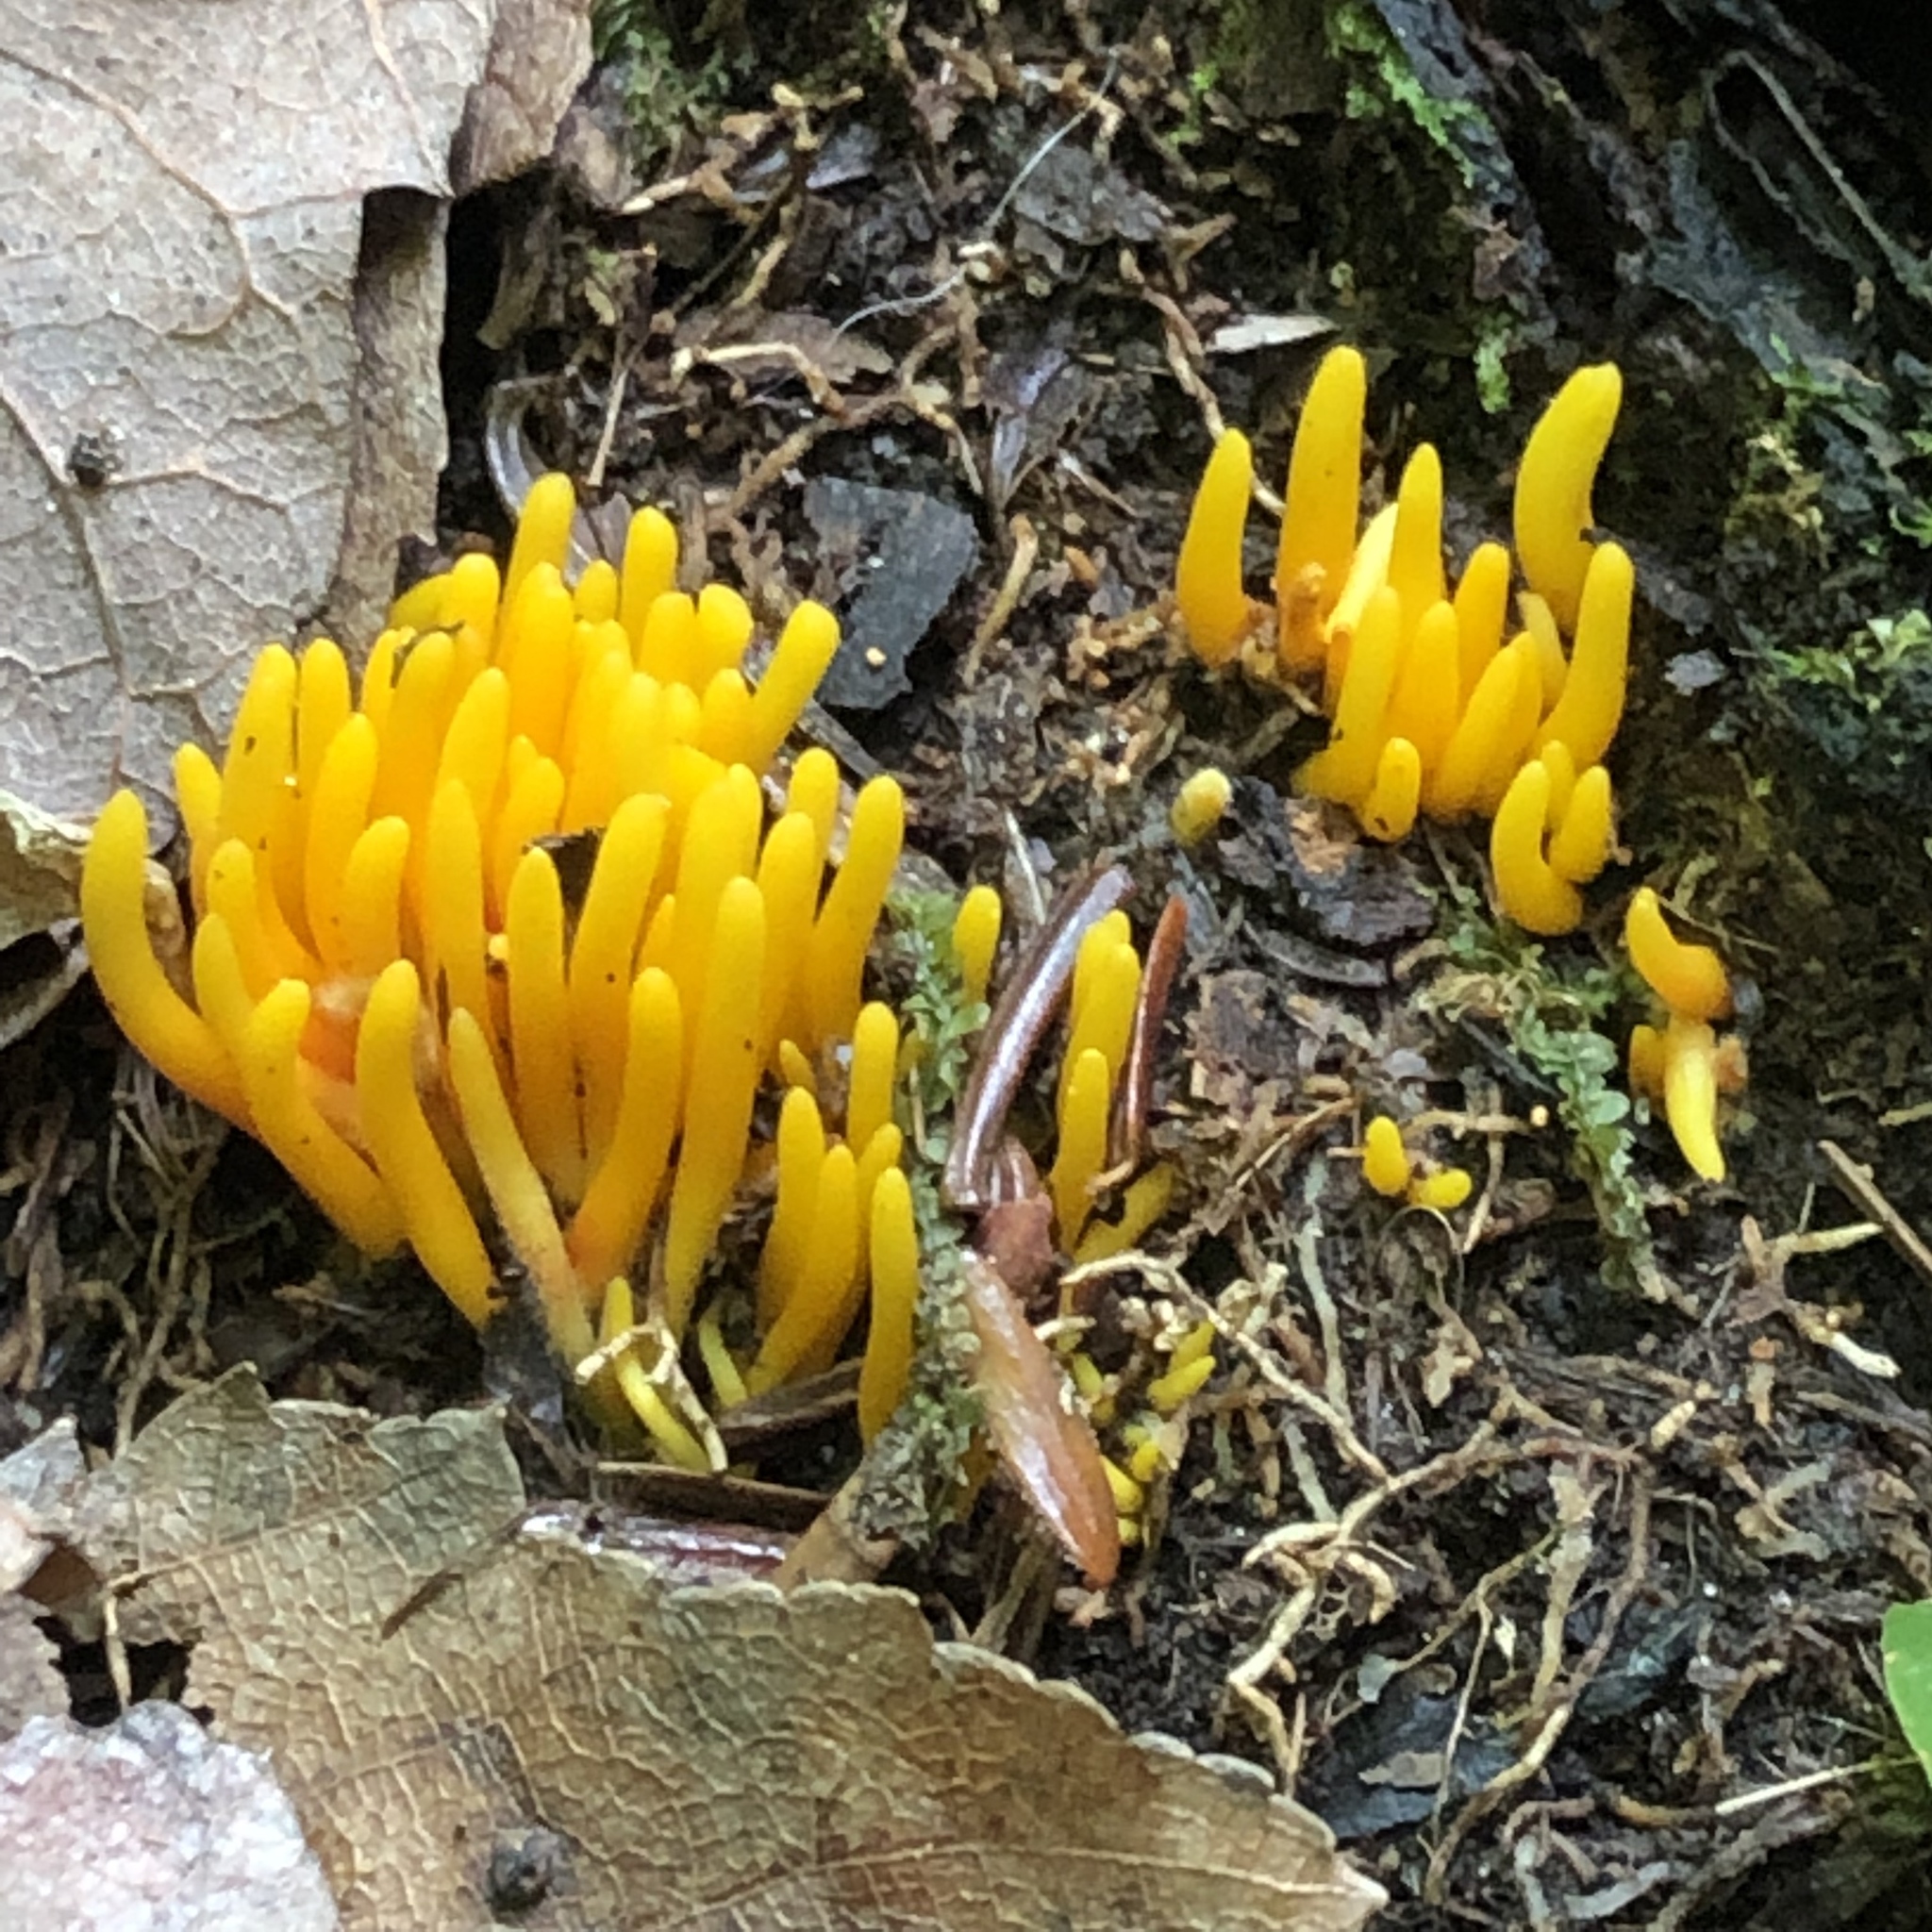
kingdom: Fungi
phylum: Basidiomycota
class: Agaricomycetes
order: Agaricales
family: Clavariaceae
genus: Clavulinopsis
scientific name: Clavulinopsis fusiformis
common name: Golden spindles
